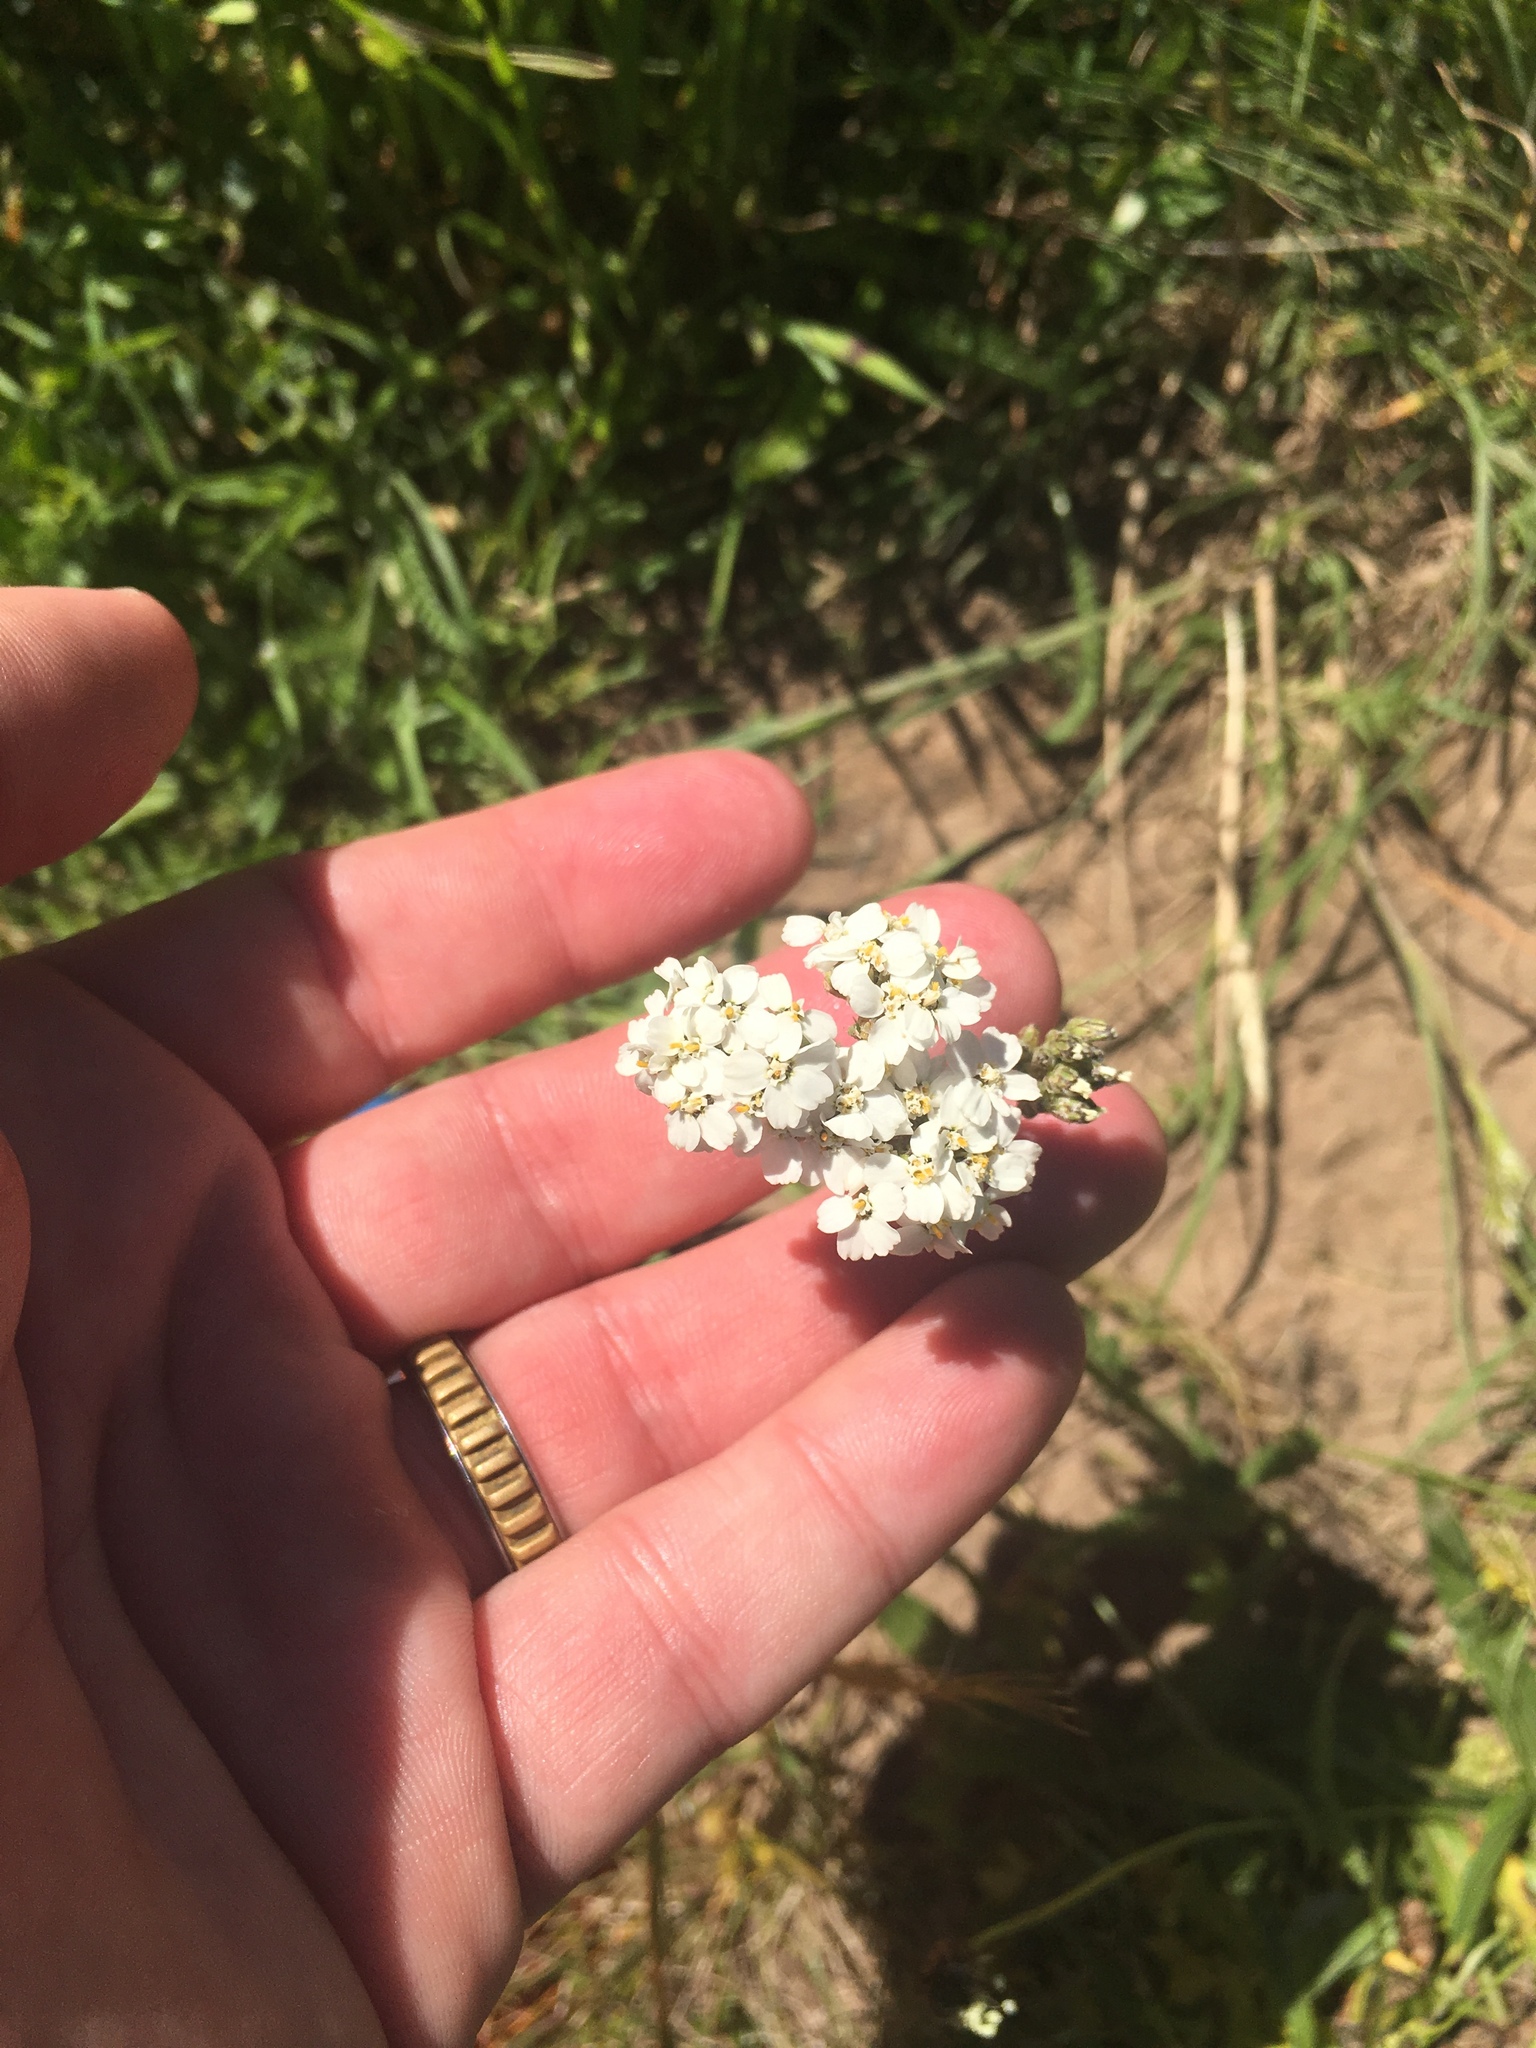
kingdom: Plantae
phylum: Tracheophyta
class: Magnoliopsida
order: Asterales
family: Asteraceae
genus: Achillea
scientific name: Achillea millefolium
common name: Yarrow
